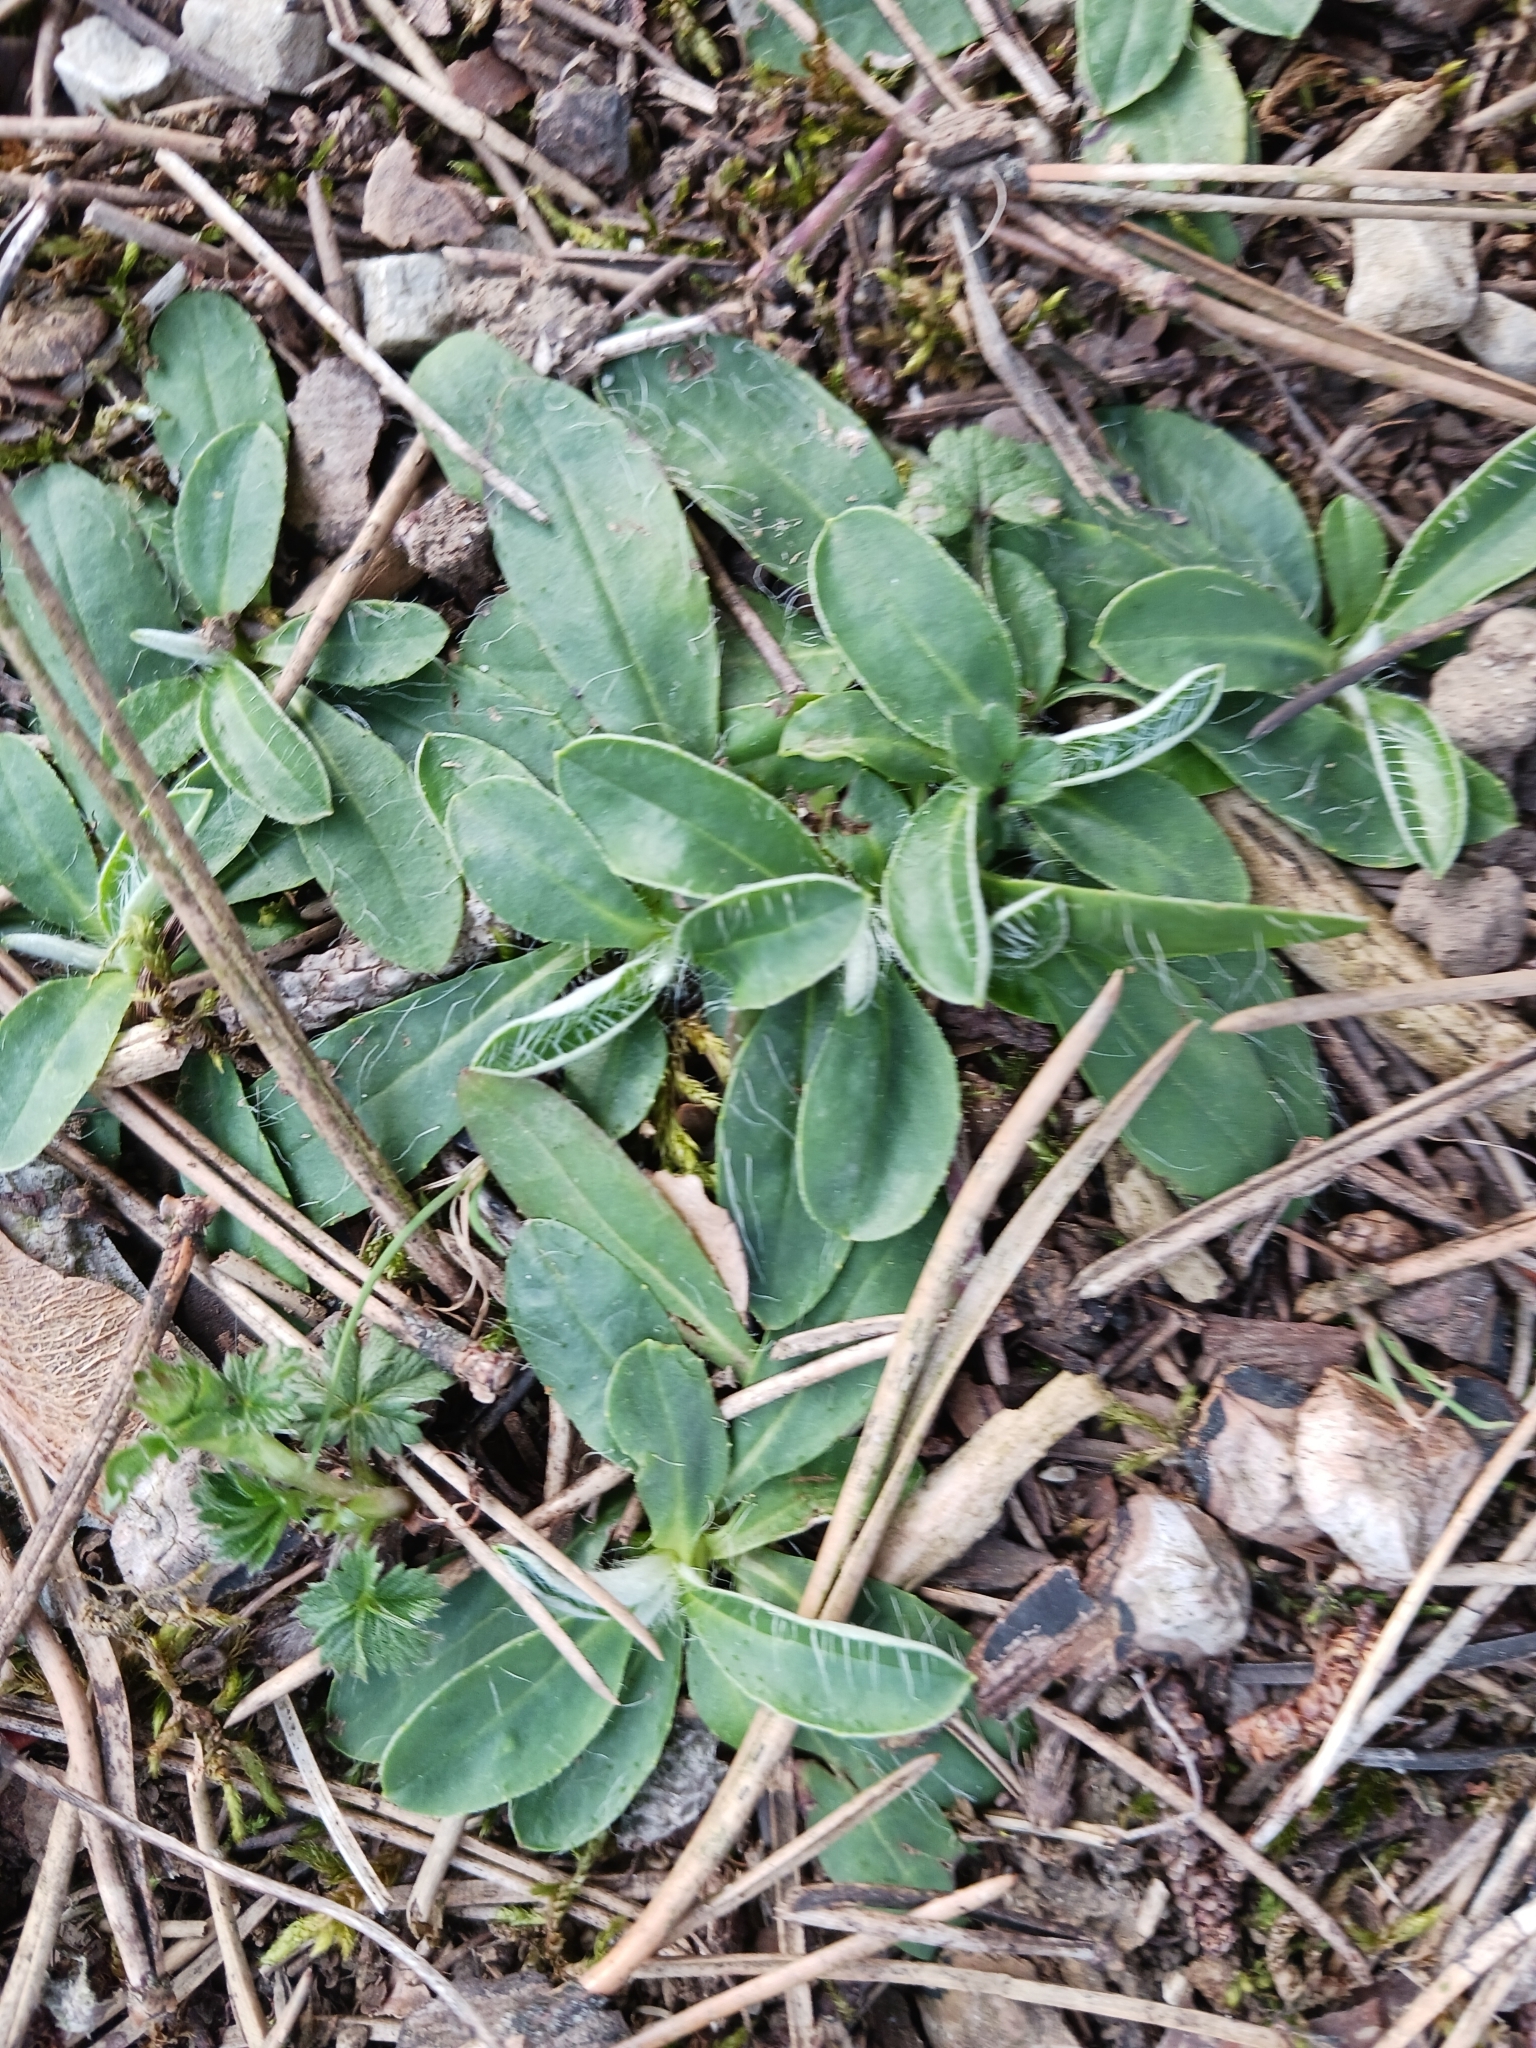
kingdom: Plantae
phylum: Tracheophyta
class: Magnoliopsida
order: Asterales
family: Asteraceae
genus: Pilosella
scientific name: Pilosella officinarum
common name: Mouse-ear hawkweed
